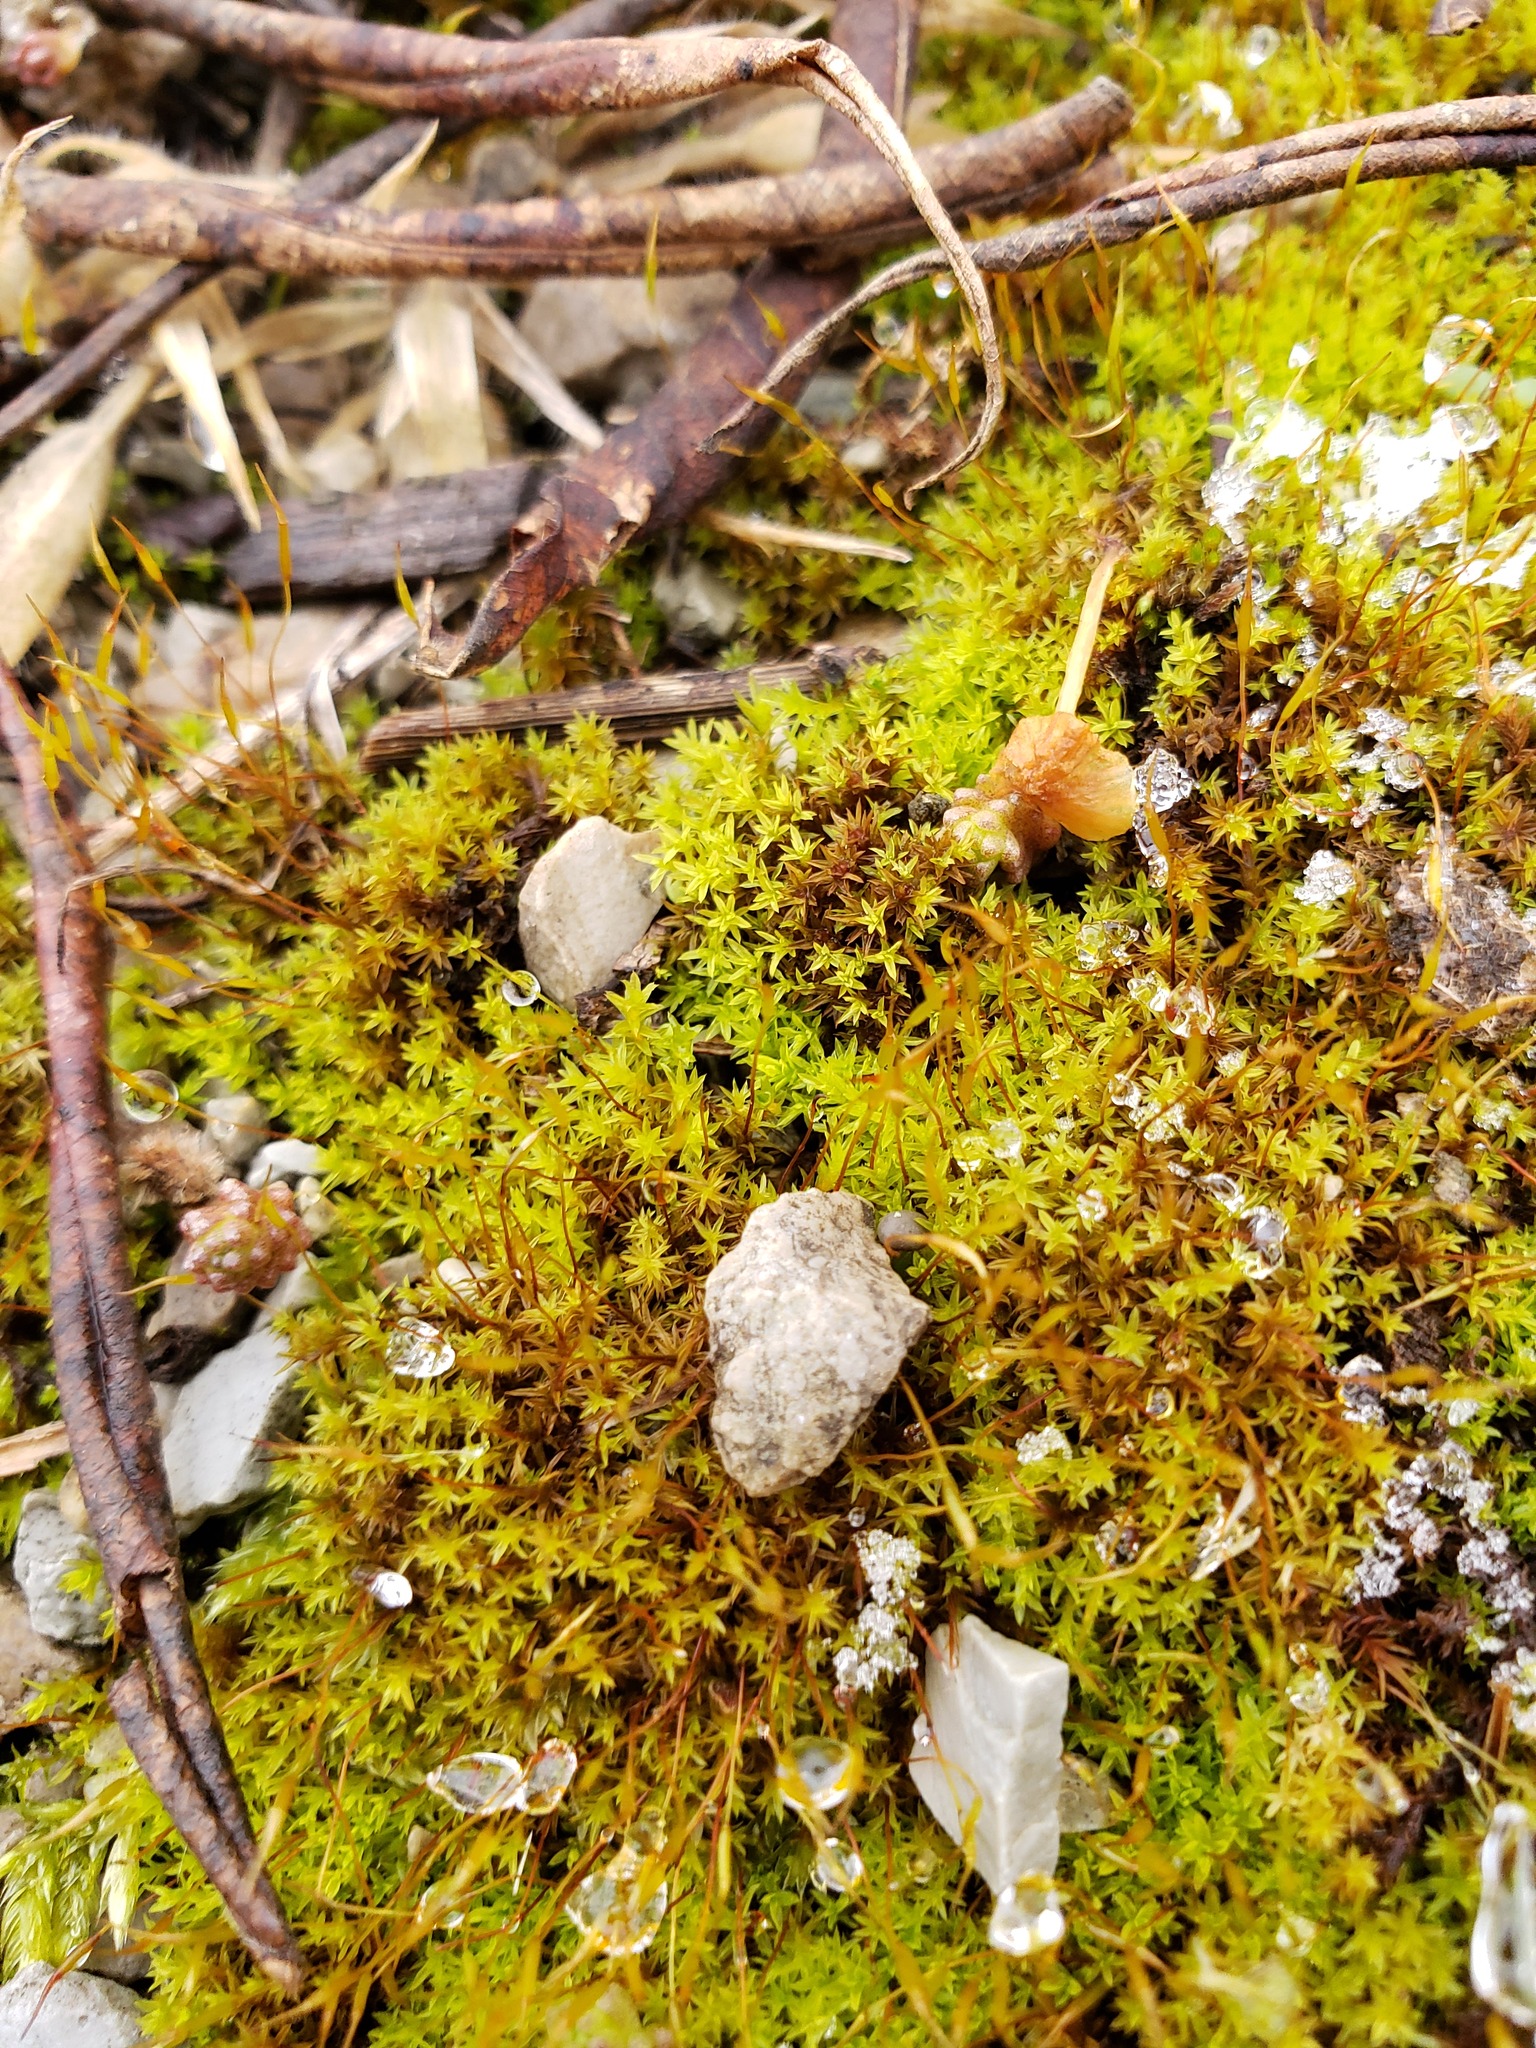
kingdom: Plantae
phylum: Bryophyta
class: Bryopsida
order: Pottiales
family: Pottiaceae
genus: Barbula
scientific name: Barbula unguiculata
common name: Prickly beard moss
